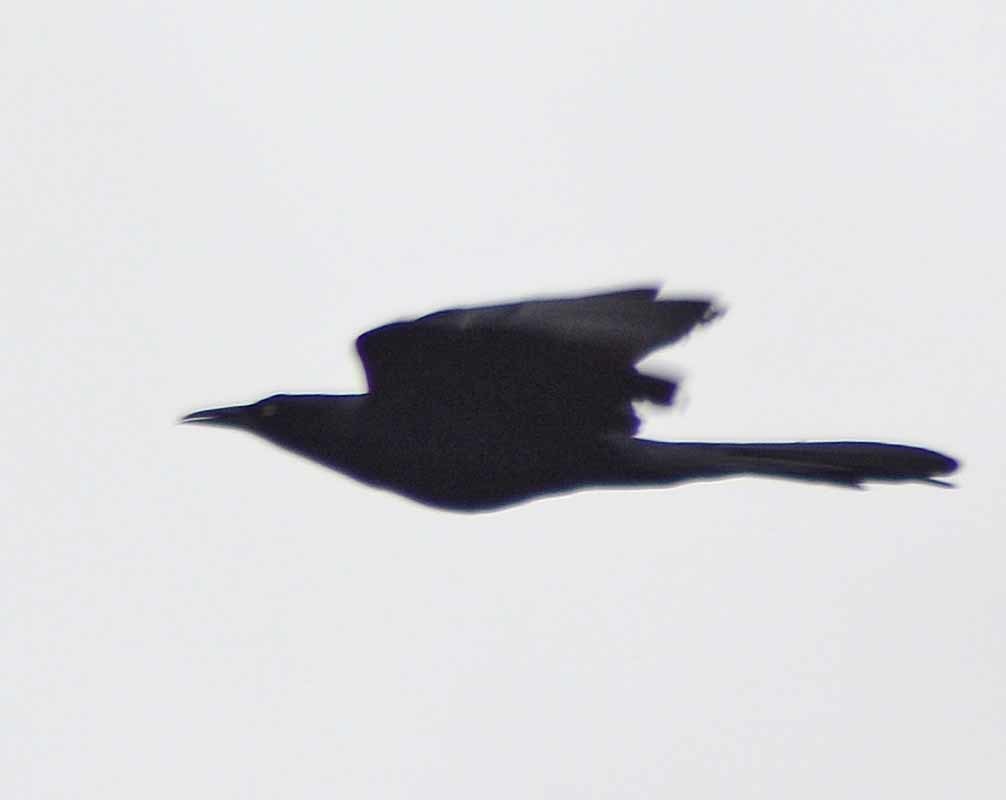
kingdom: Animalia
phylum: Chordata
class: Aves
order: Passeriformes
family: Icteridae
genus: Quiscalus
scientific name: Quiscalus mexicanus
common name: Great-tailed grackle
